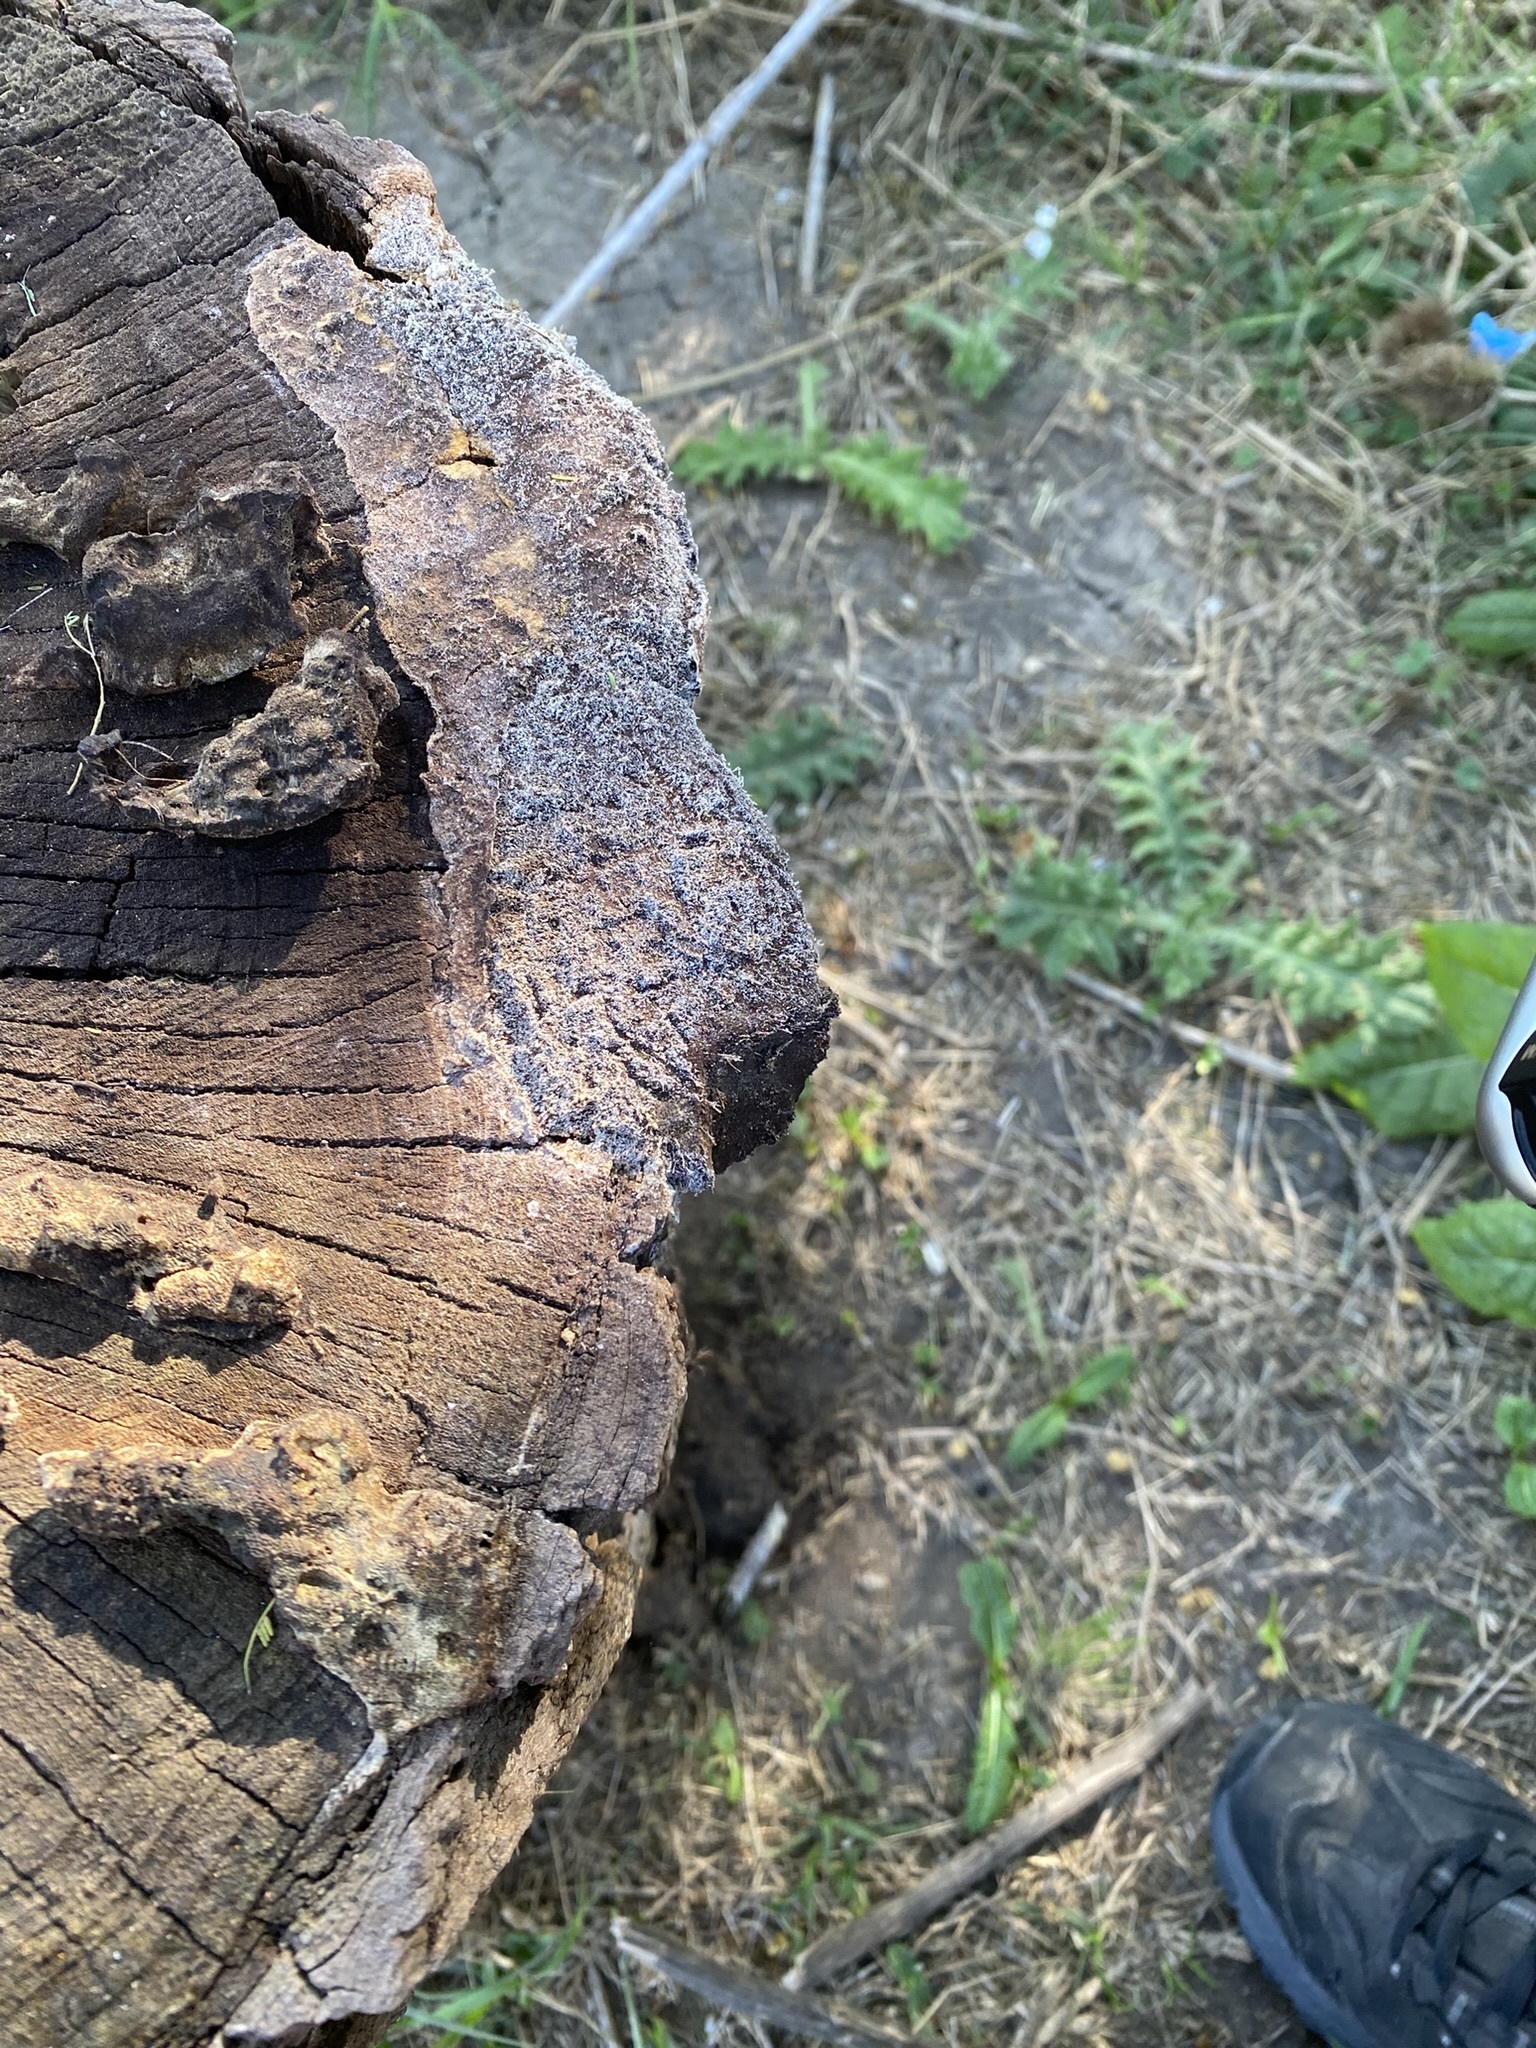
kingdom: Protozoa
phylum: Mycetozoa
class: Myxomycetes
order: Physarales
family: Physaraceae
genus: Fuligo
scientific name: Fuligo septica
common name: Dog vomit slime mold
